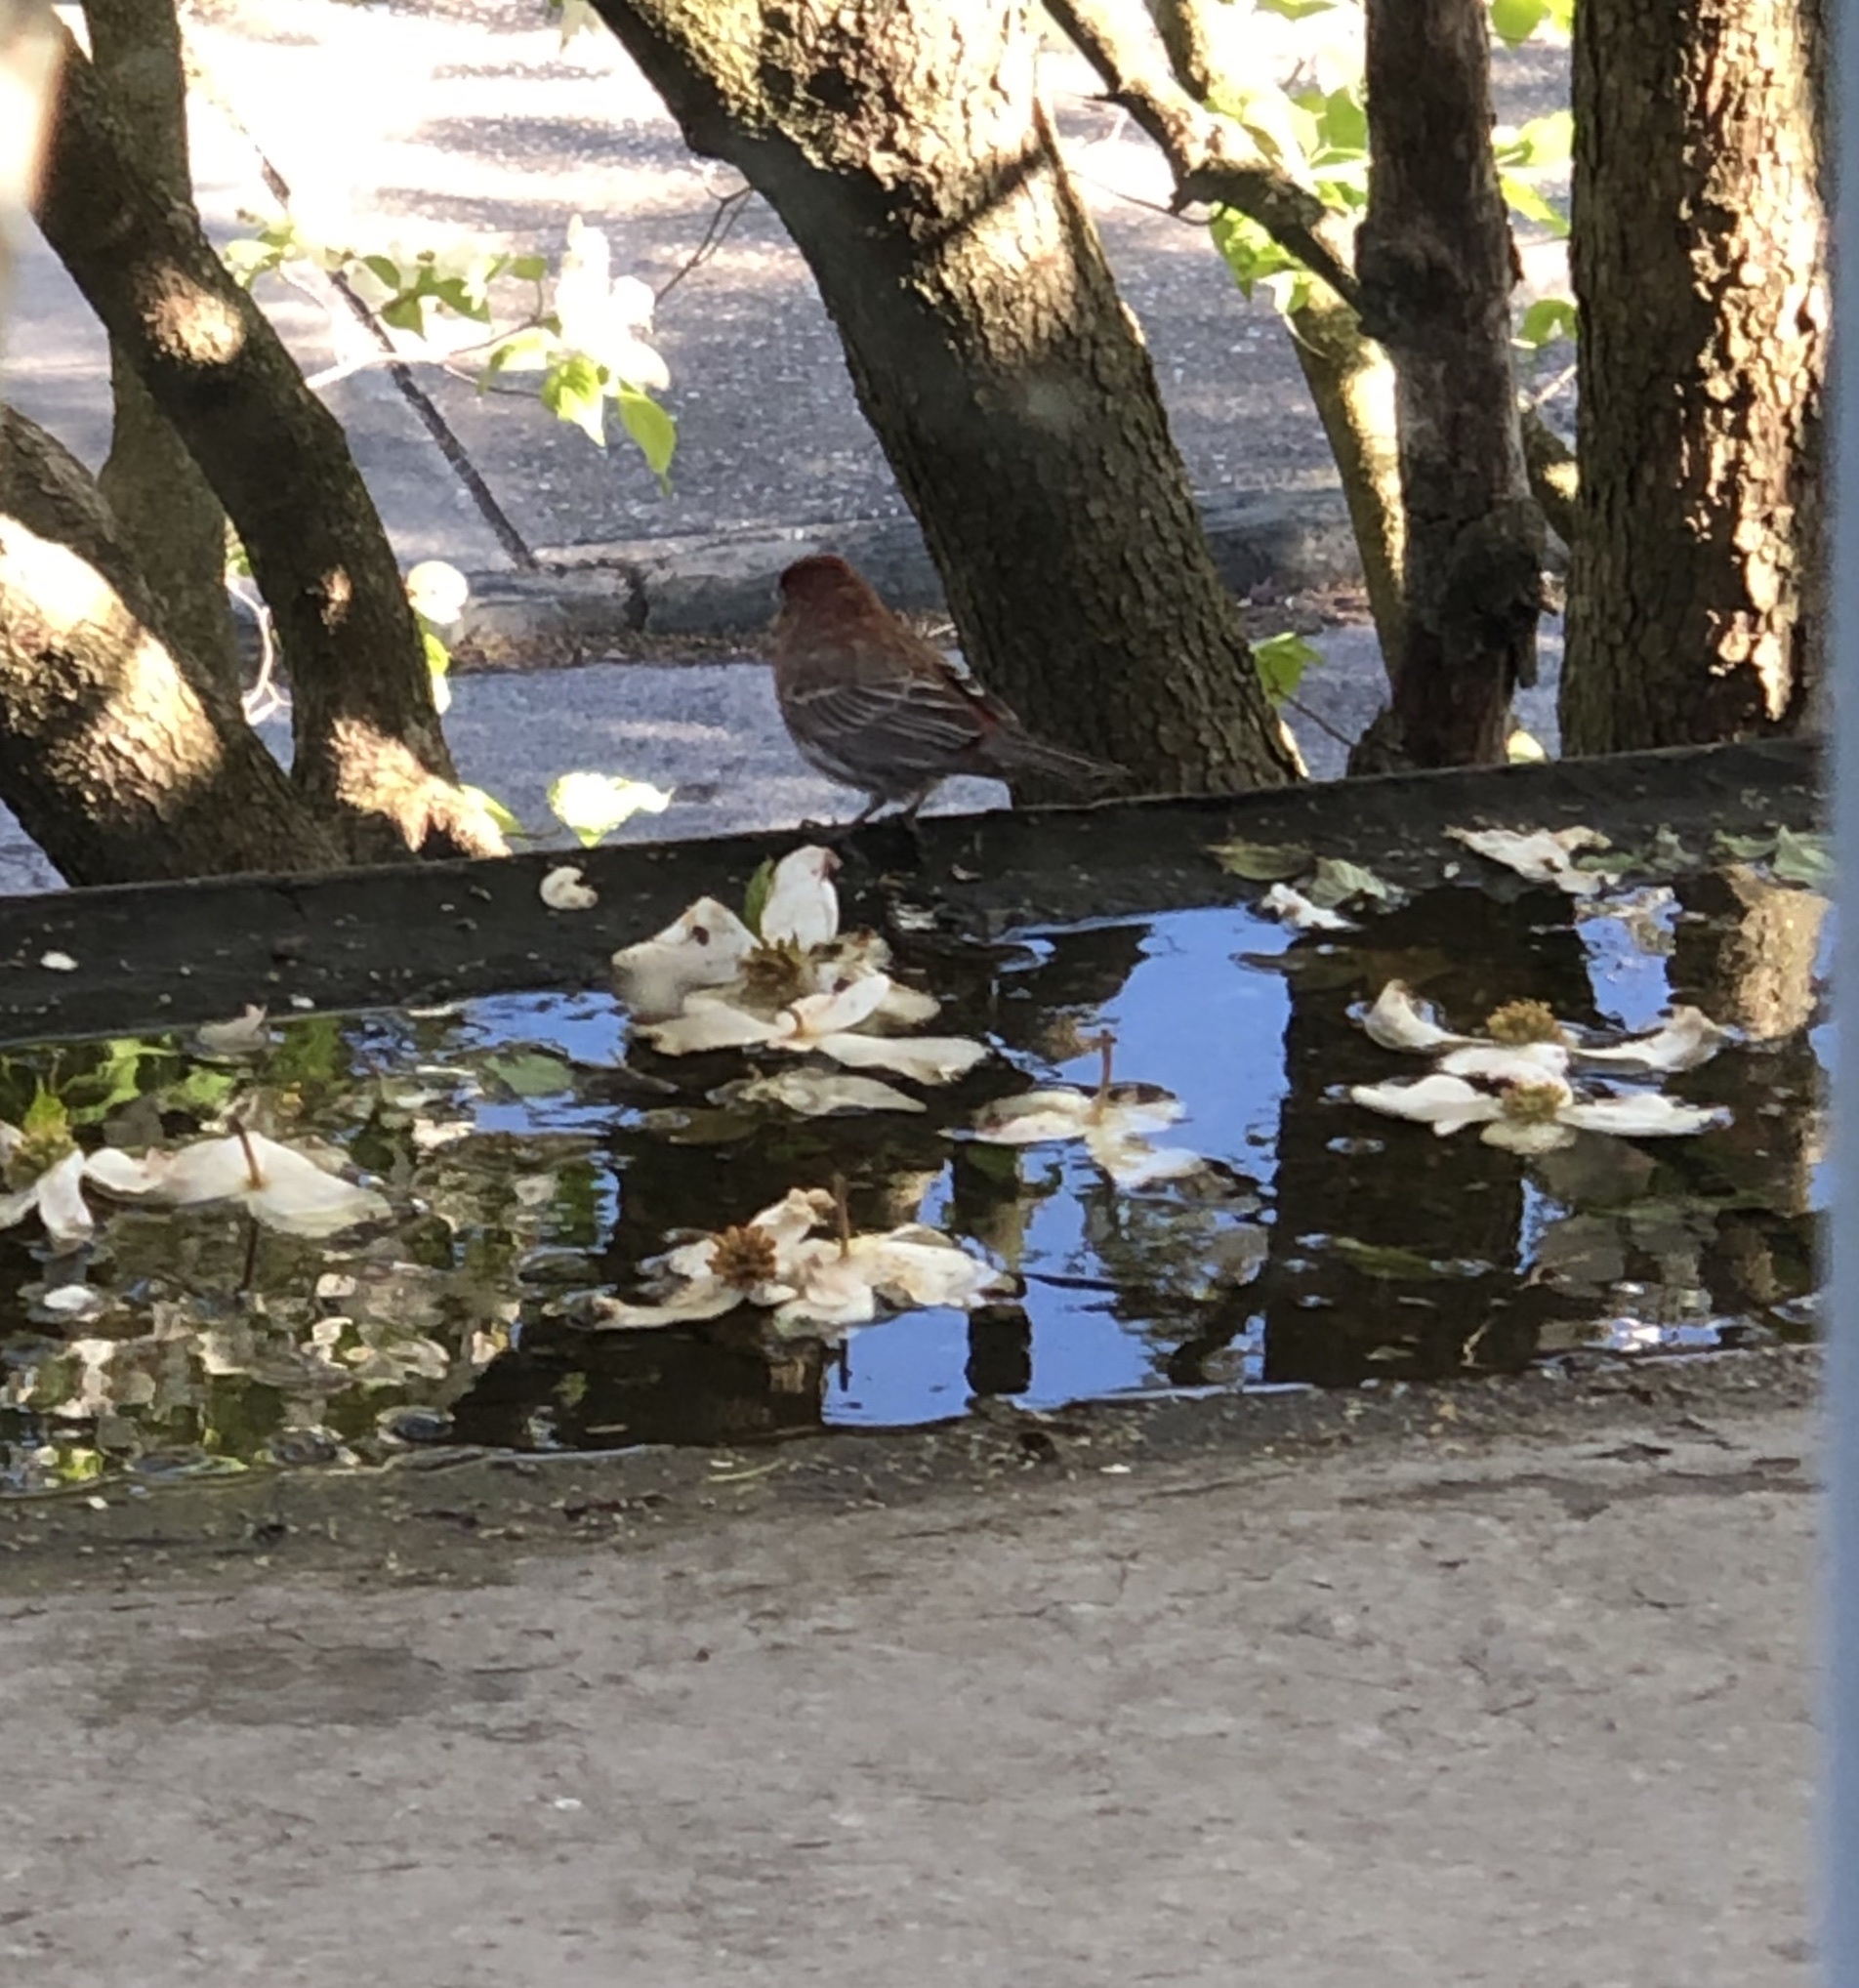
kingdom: Animalia
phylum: Chordata
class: Aves
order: Passeriformes
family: Fringillidae
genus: Haemorhous
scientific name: Haemorhous mexicanus
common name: House finch
